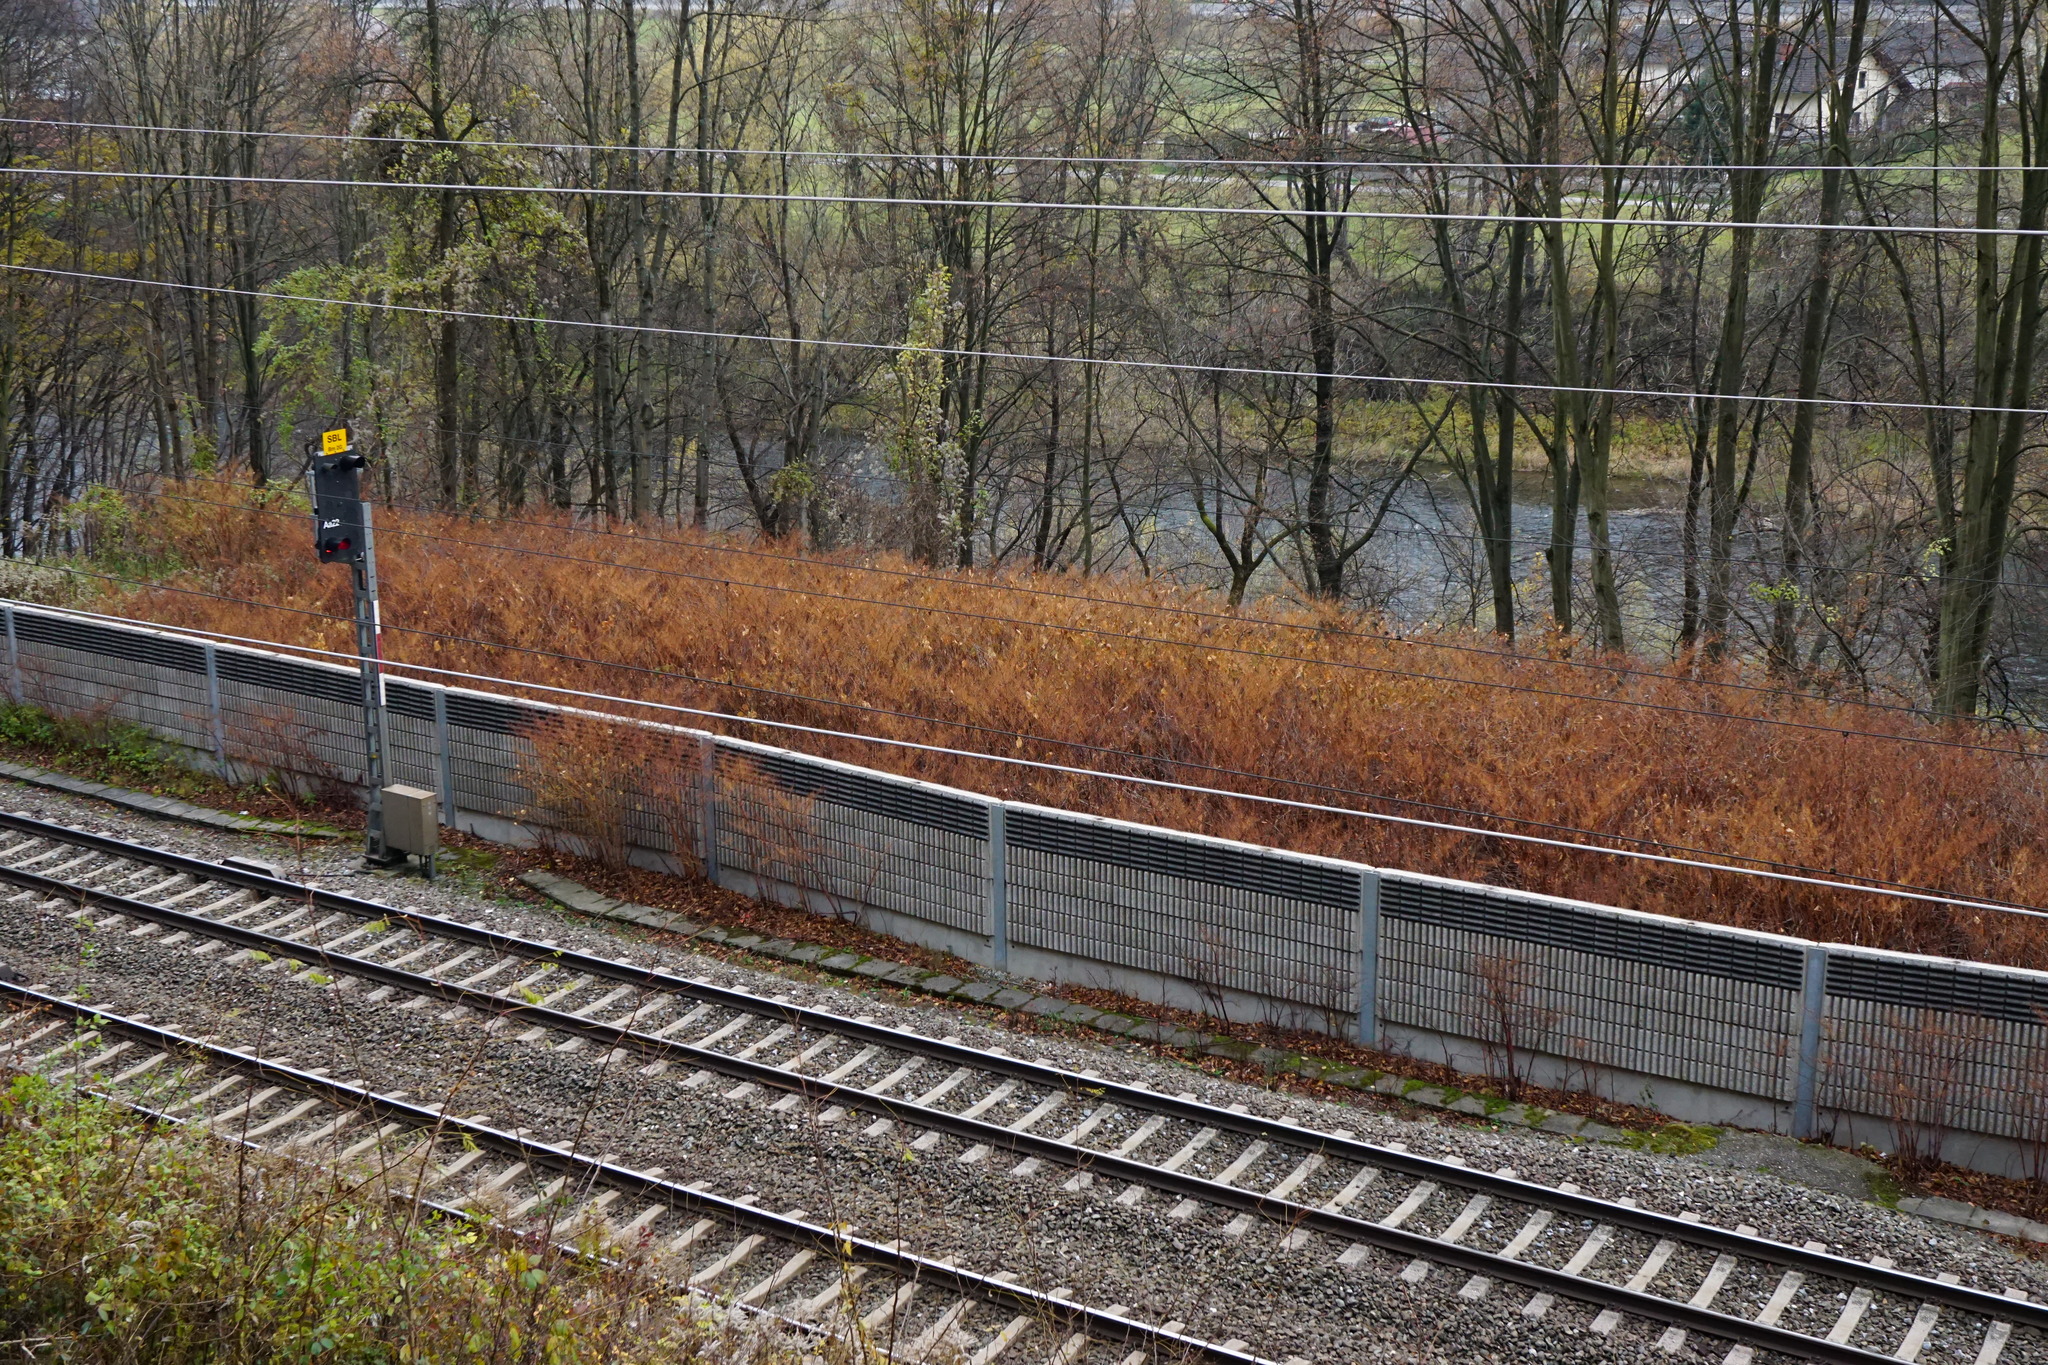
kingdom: Plantae
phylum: Tracheophyta
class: Magnoliopsida
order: Caryophyllales
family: Polygonaceae
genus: Reynoutria
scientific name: Reynoutria
